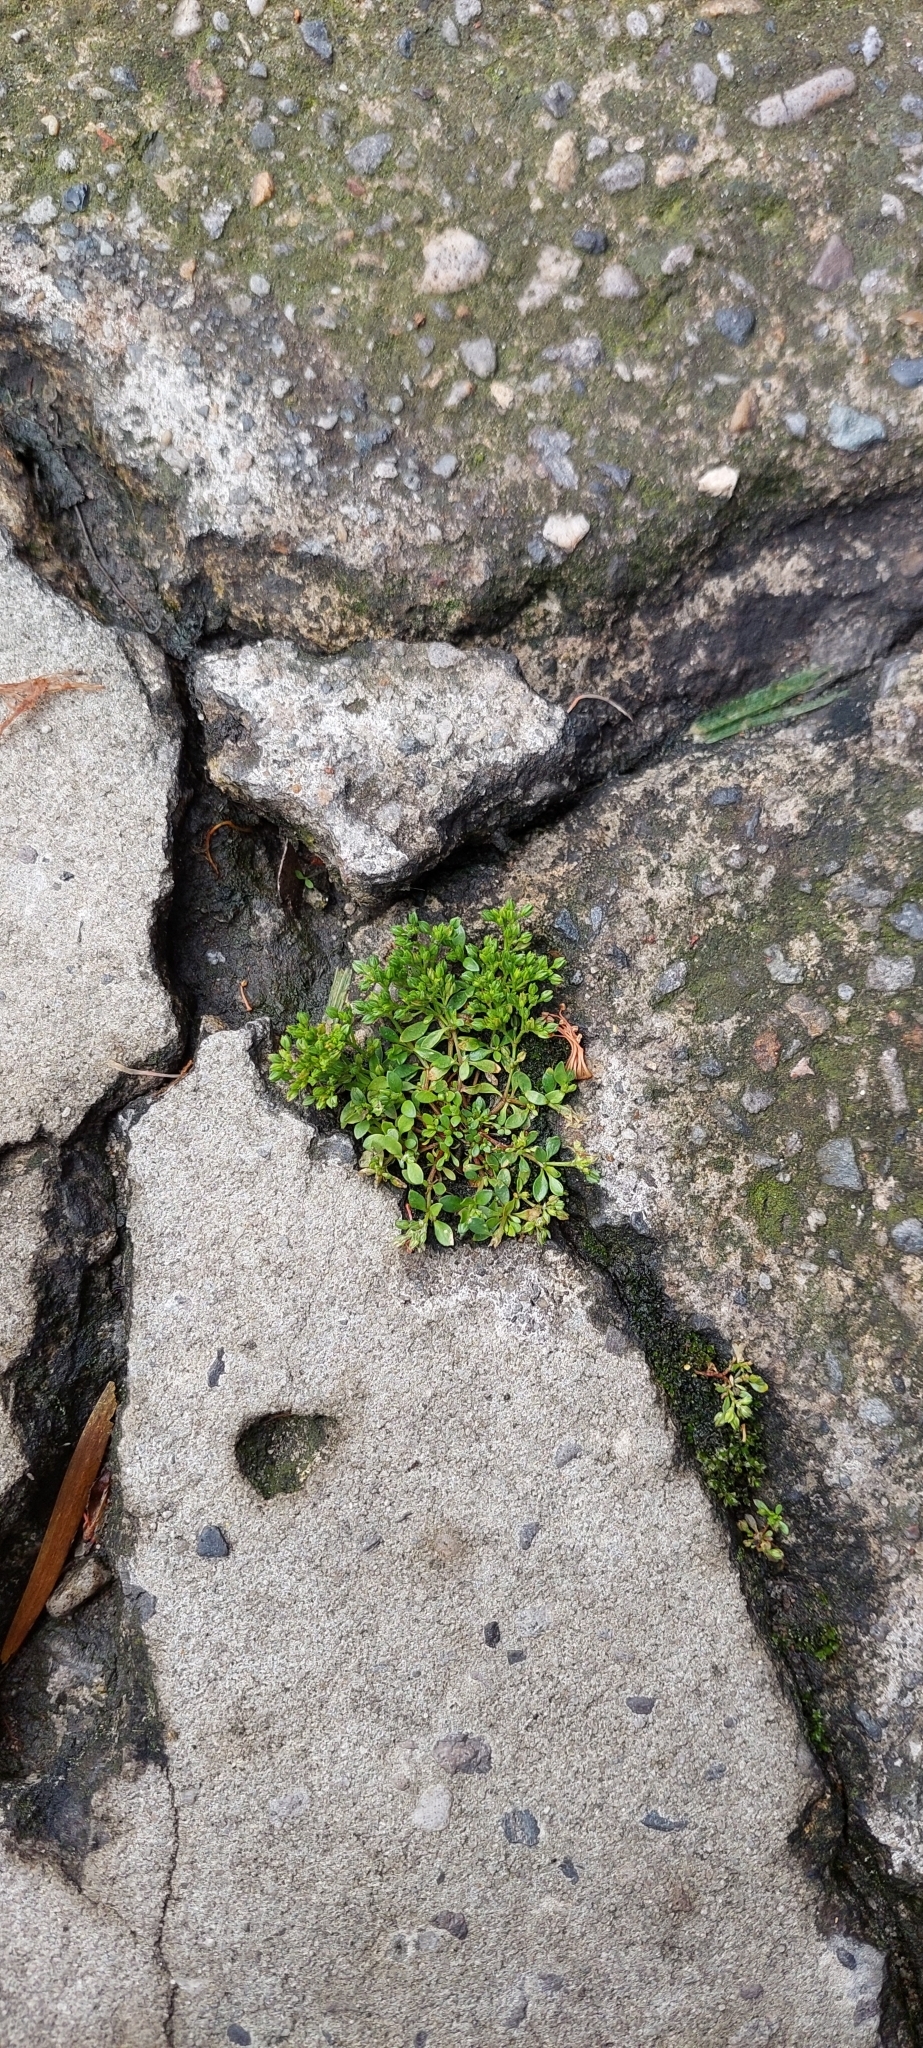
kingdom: Plantae
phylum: Tracheophyta
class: Magnoliopsida
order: Caryophyllales
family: Caryophyllaceae
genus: Polycarpon
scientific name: Polycarpon tetraphyllum
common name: Four-leaved all-seed
